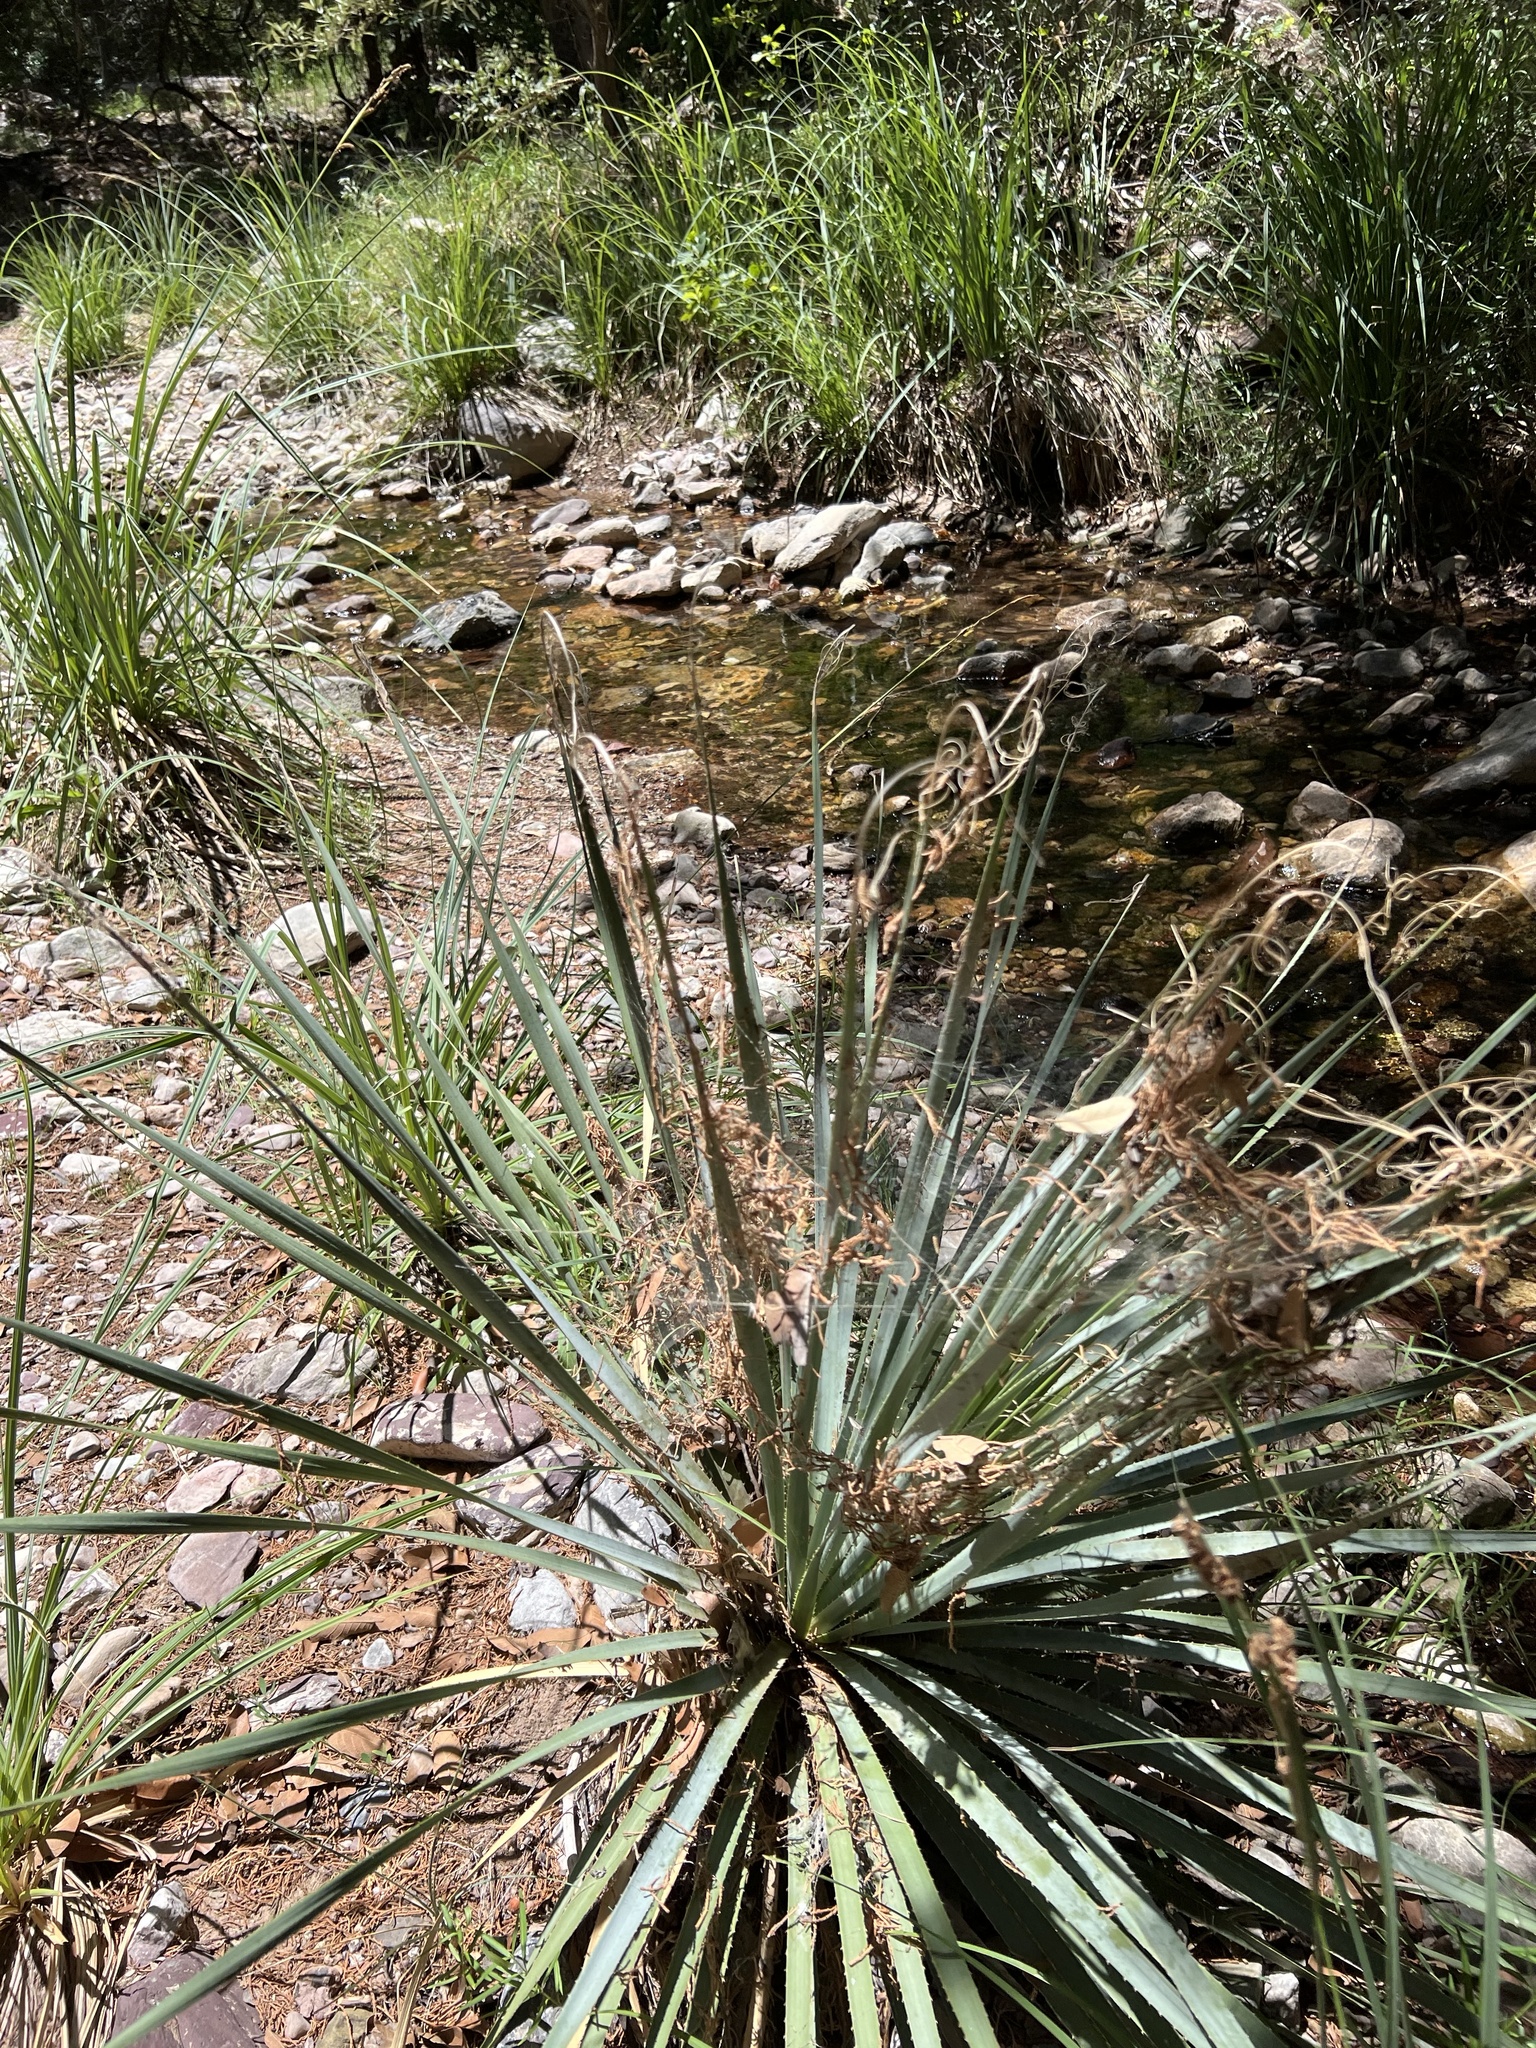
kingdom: Plantae
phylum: Tracheophyta
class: Liliopsida
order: Asparagales
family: Asparagaceae
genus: Dasylirion
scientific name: Dasylirion wheeleri
